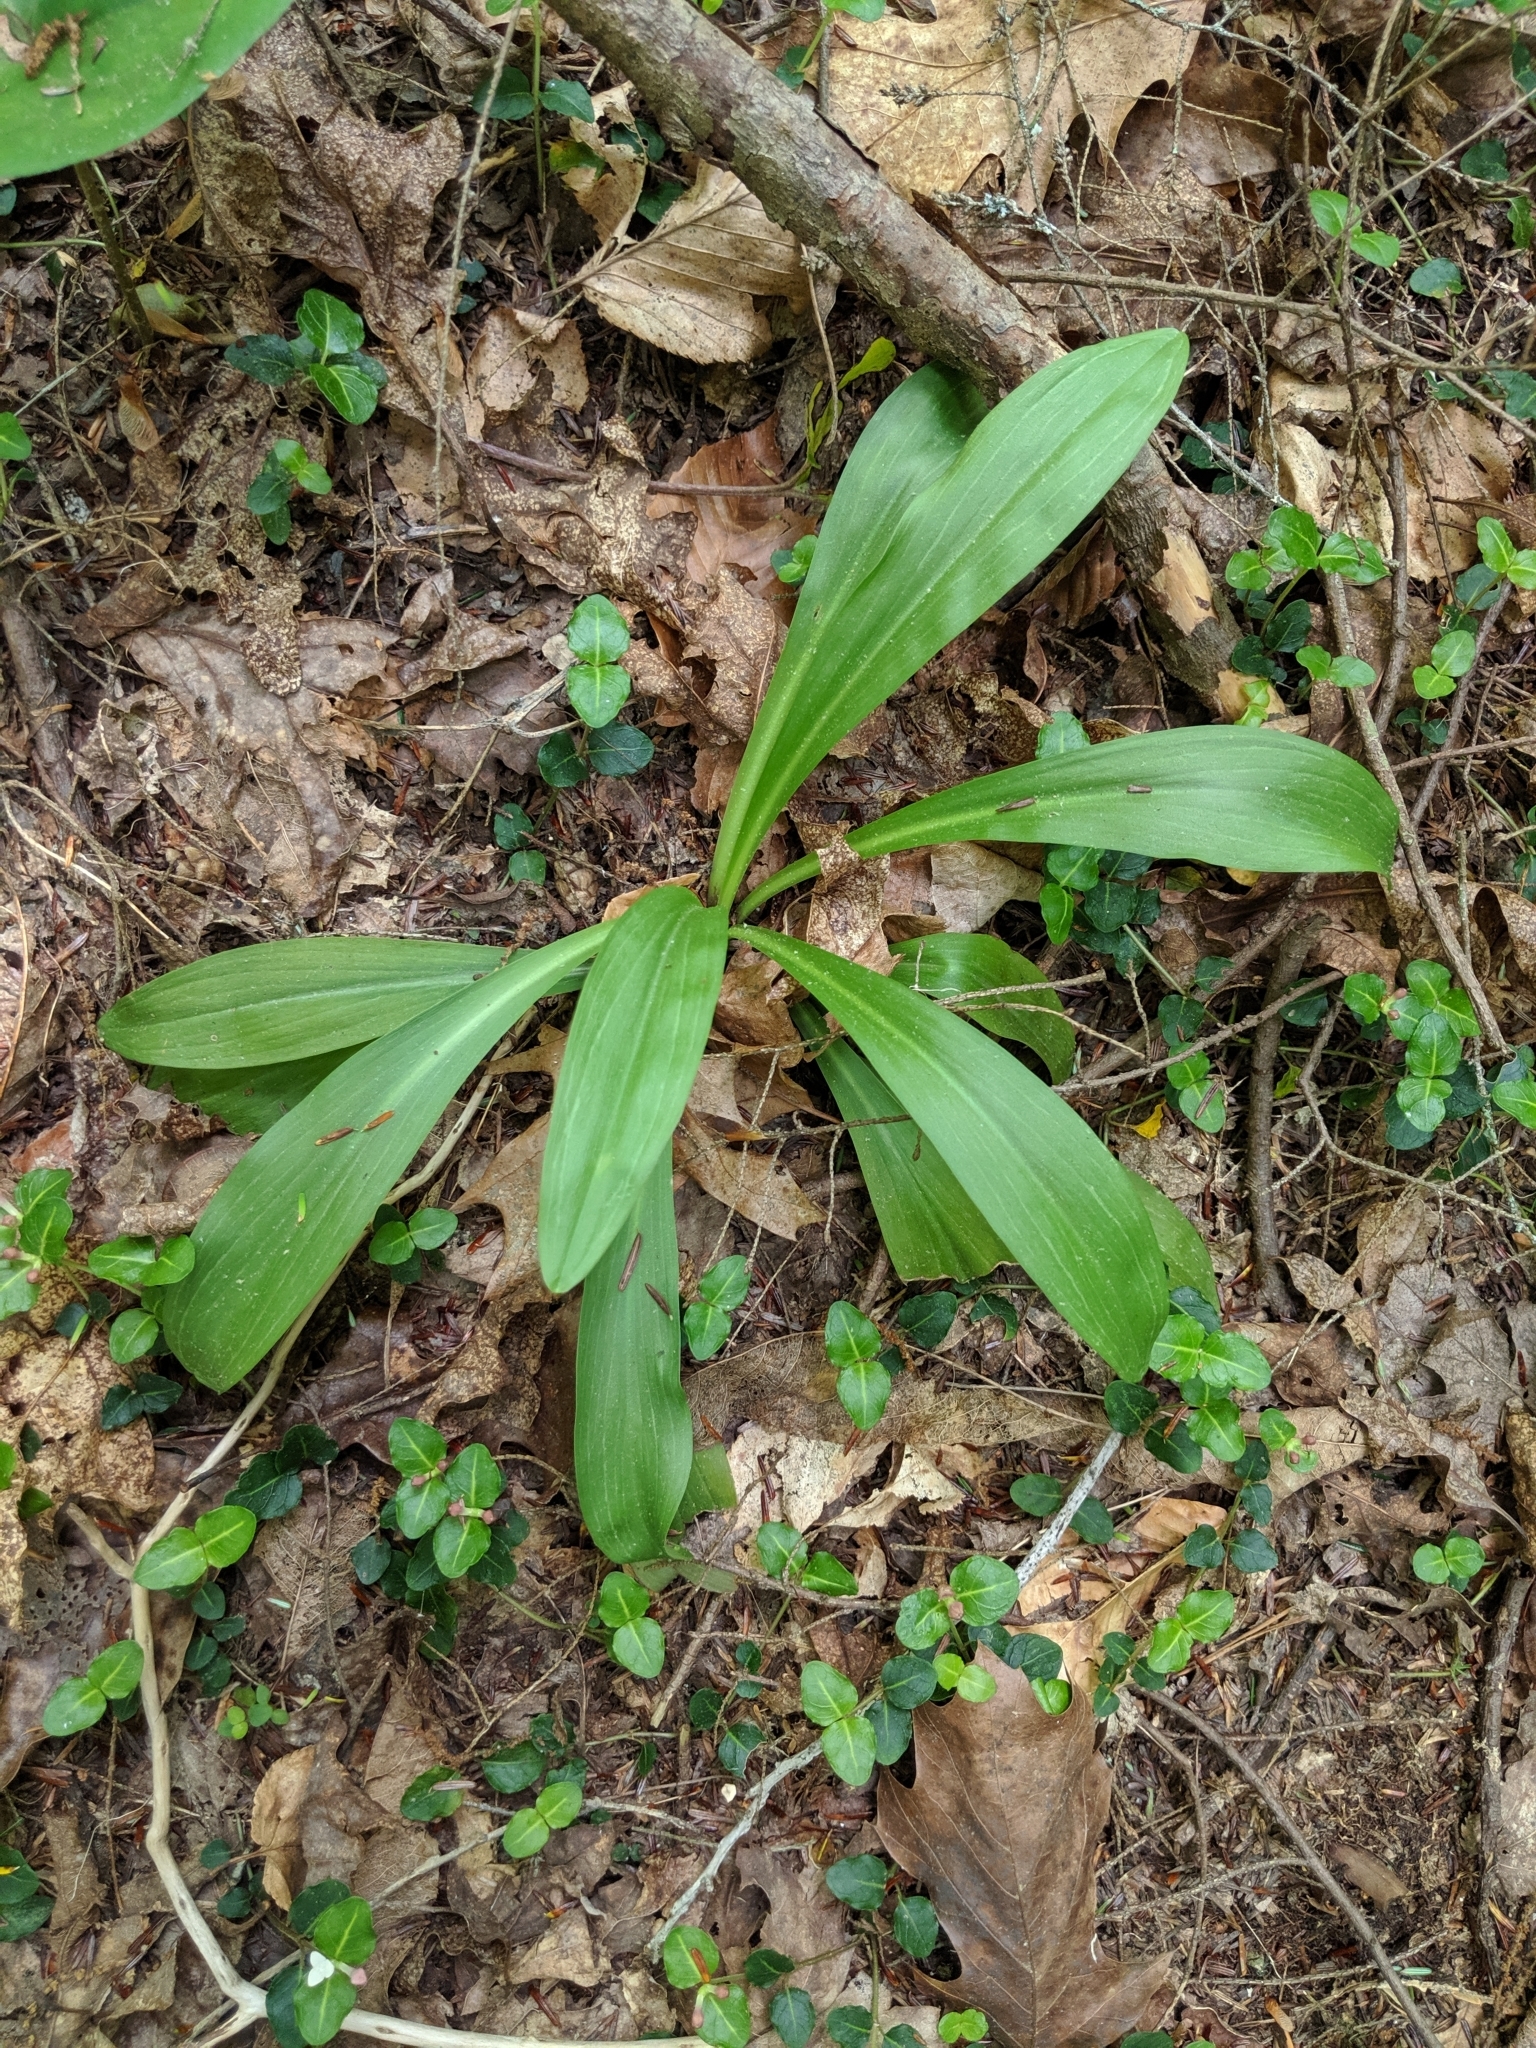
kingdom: Plantae
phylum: Tracheophyta
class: Liliopsida
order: Liliales
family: Melanthiaceae
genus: Chamaelirium
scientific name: Chamaelirium luteum
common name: Fairy-wand
